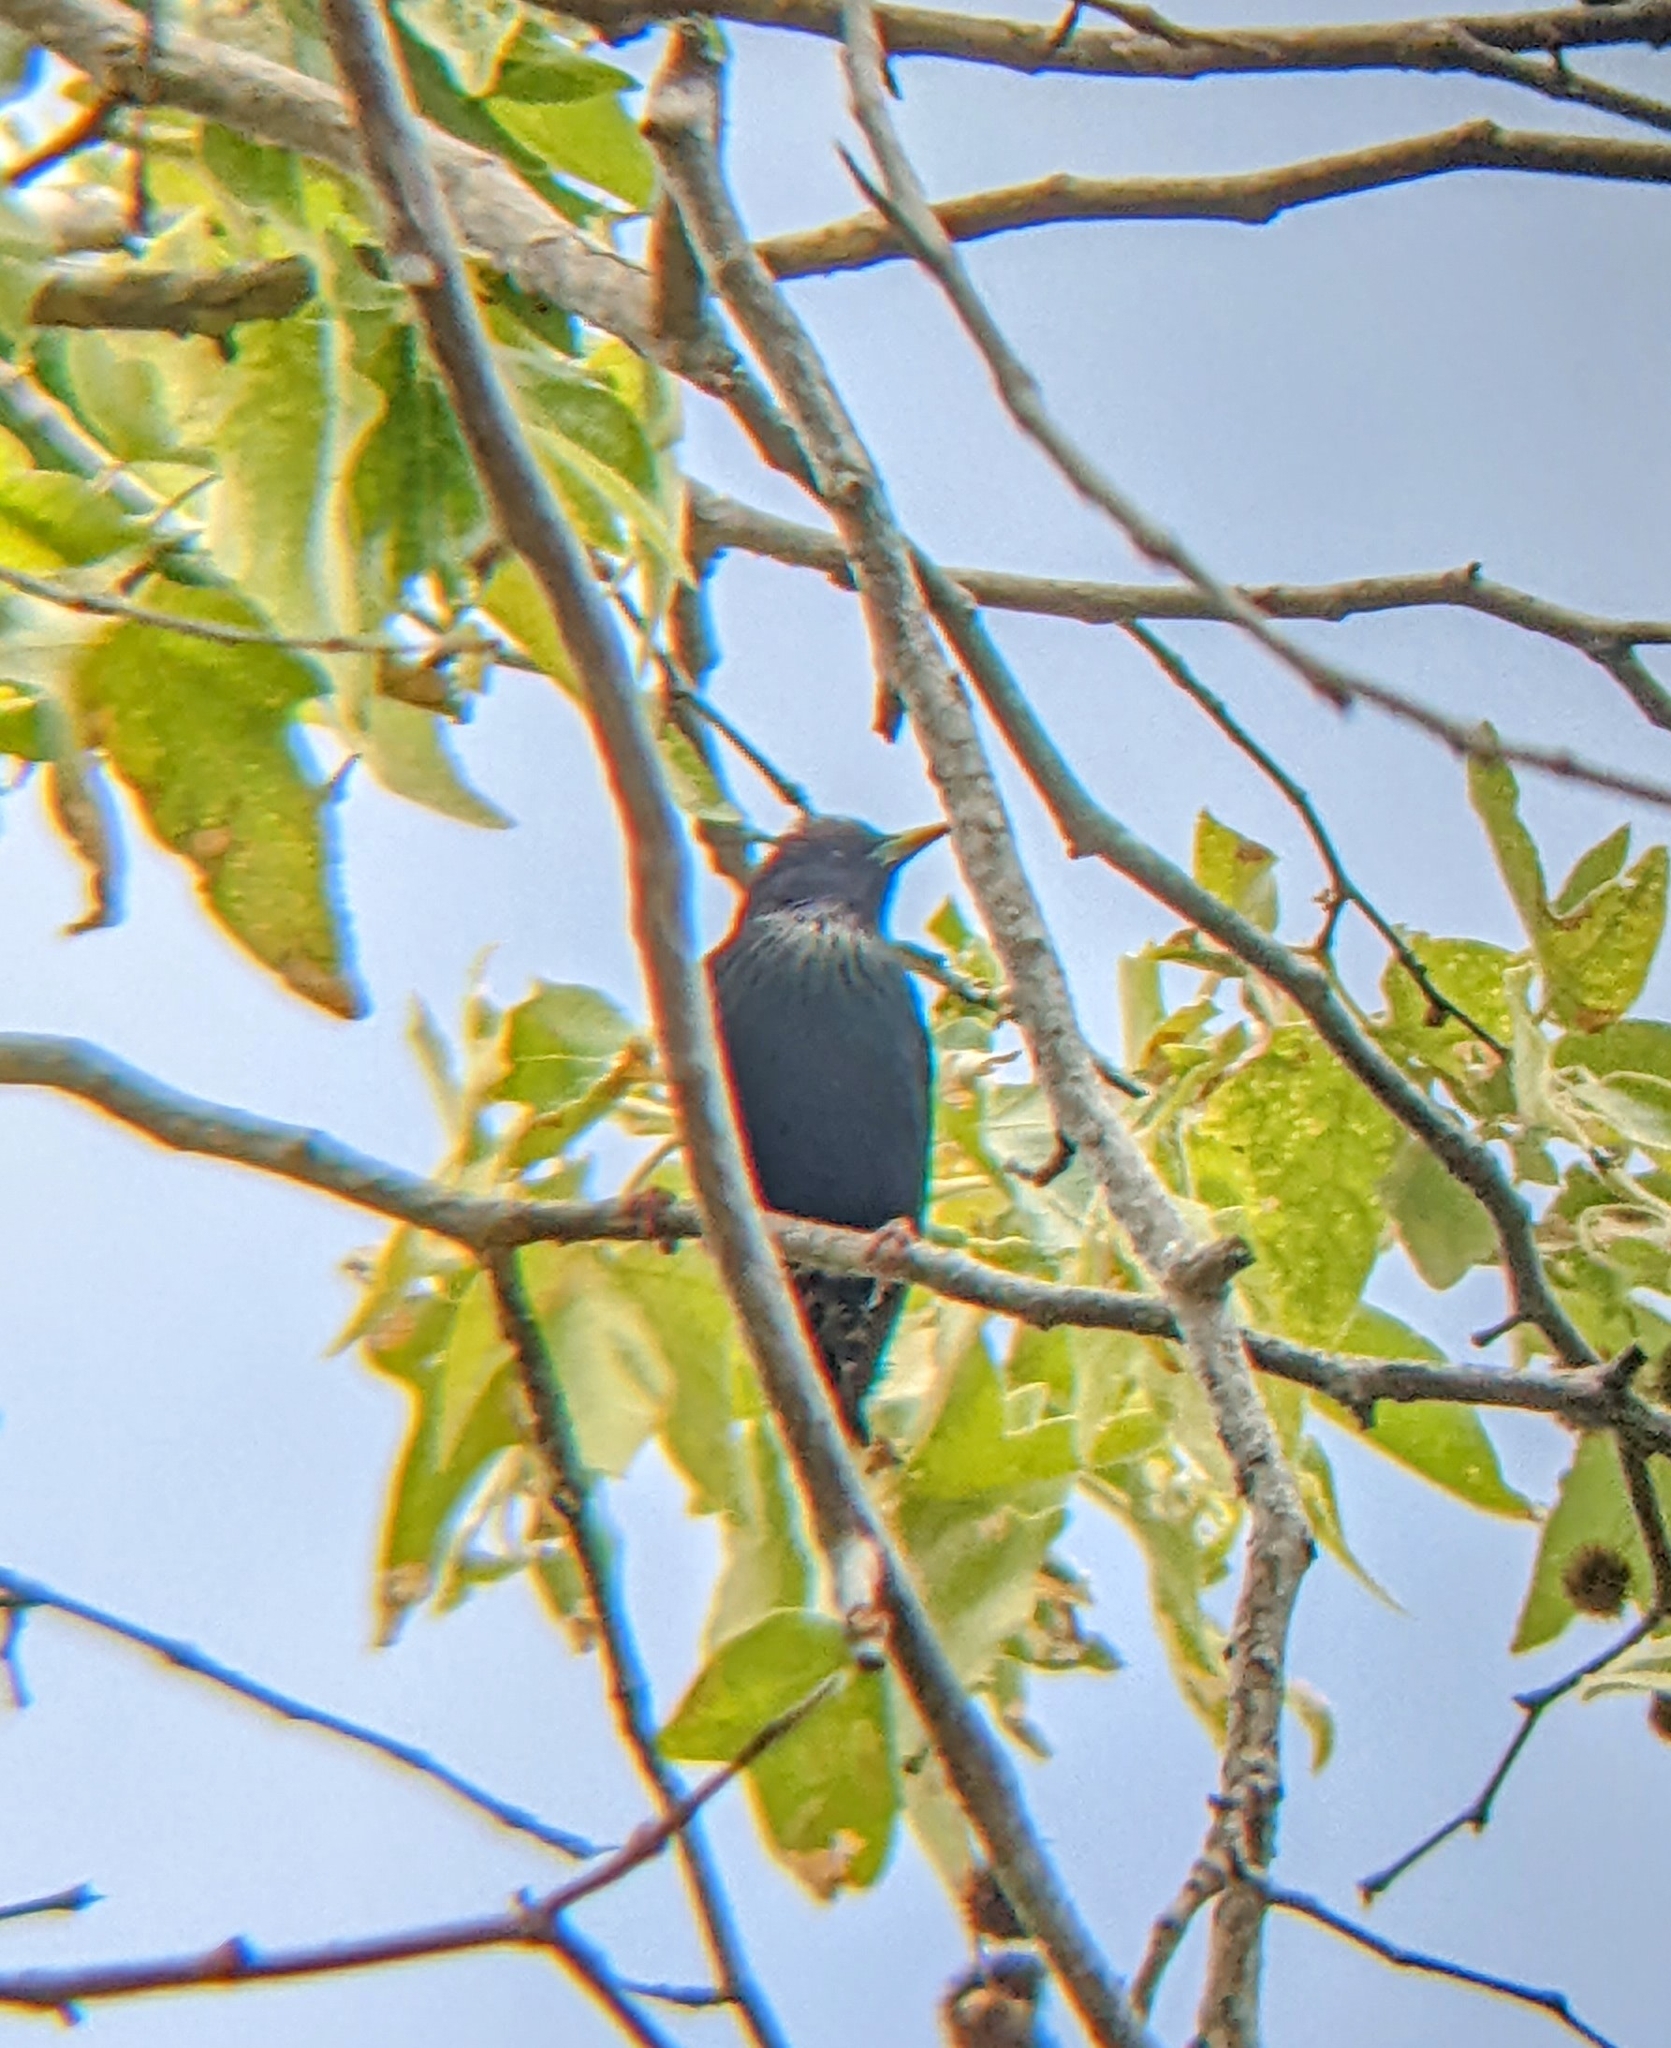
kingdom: Animalia
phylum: Chordata
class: Aves
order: Passeriformes
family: Sturnidae
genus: Sturnus
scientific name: Sturnus vulgaris
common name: Common starling
